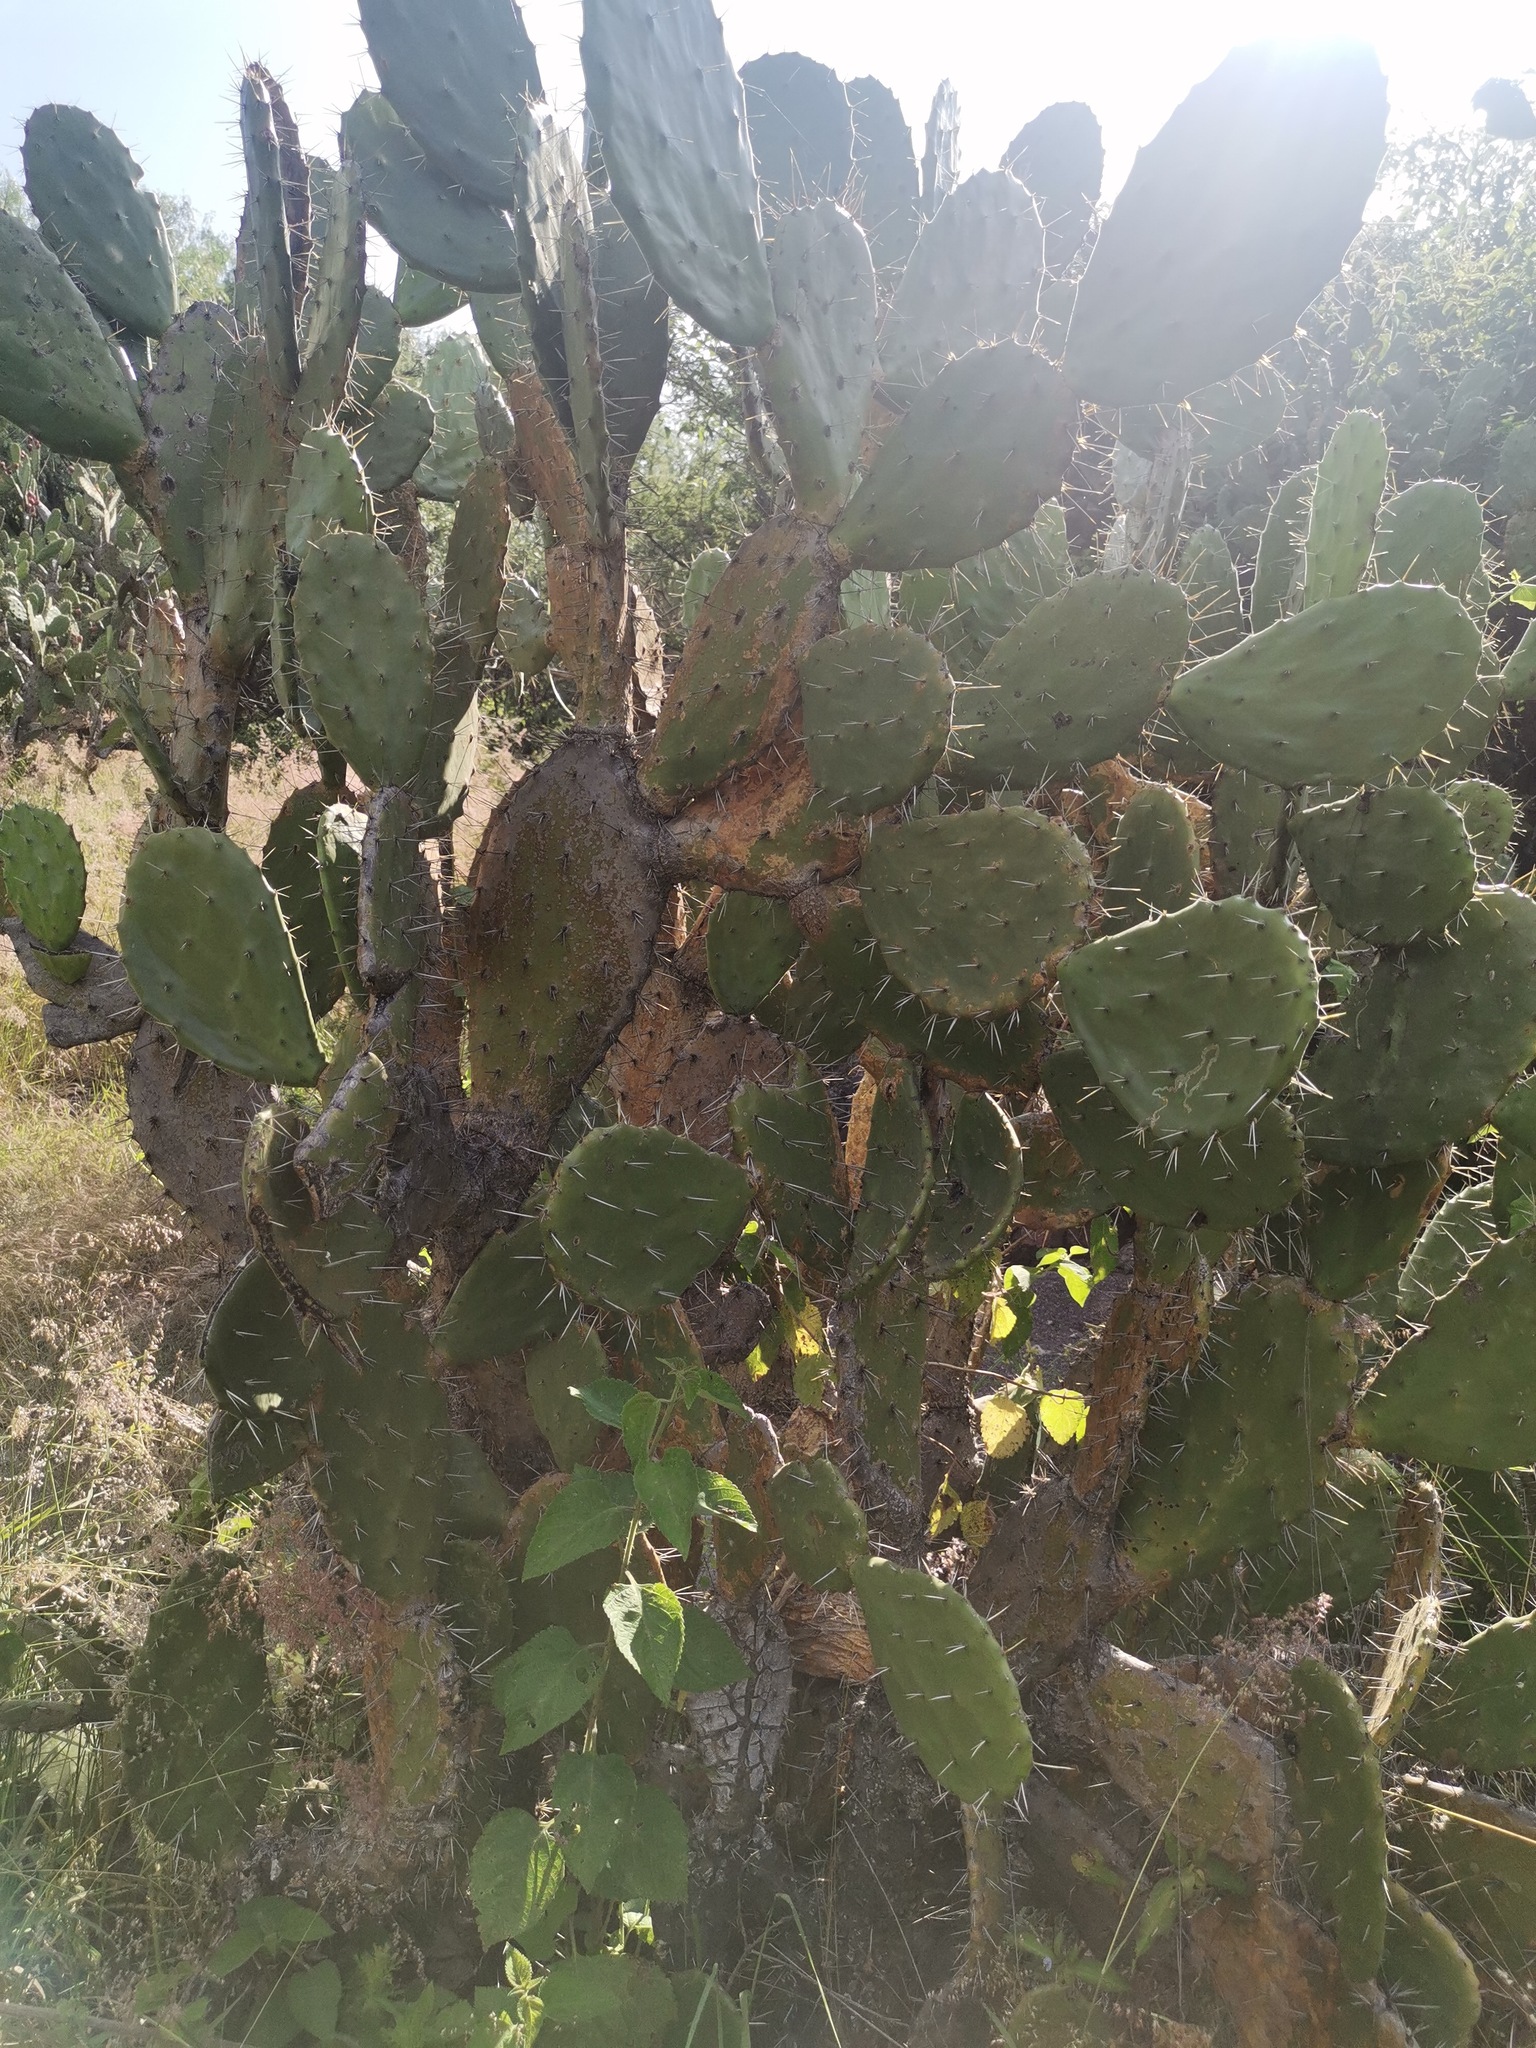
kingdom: Plantae
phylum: Tracheophyta
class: Magnoliopsida
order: Caryophyllales
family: Cactaceae
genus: Opuntia
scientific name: Opuntia tomentosa
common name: Woollyjoint pricklypear
